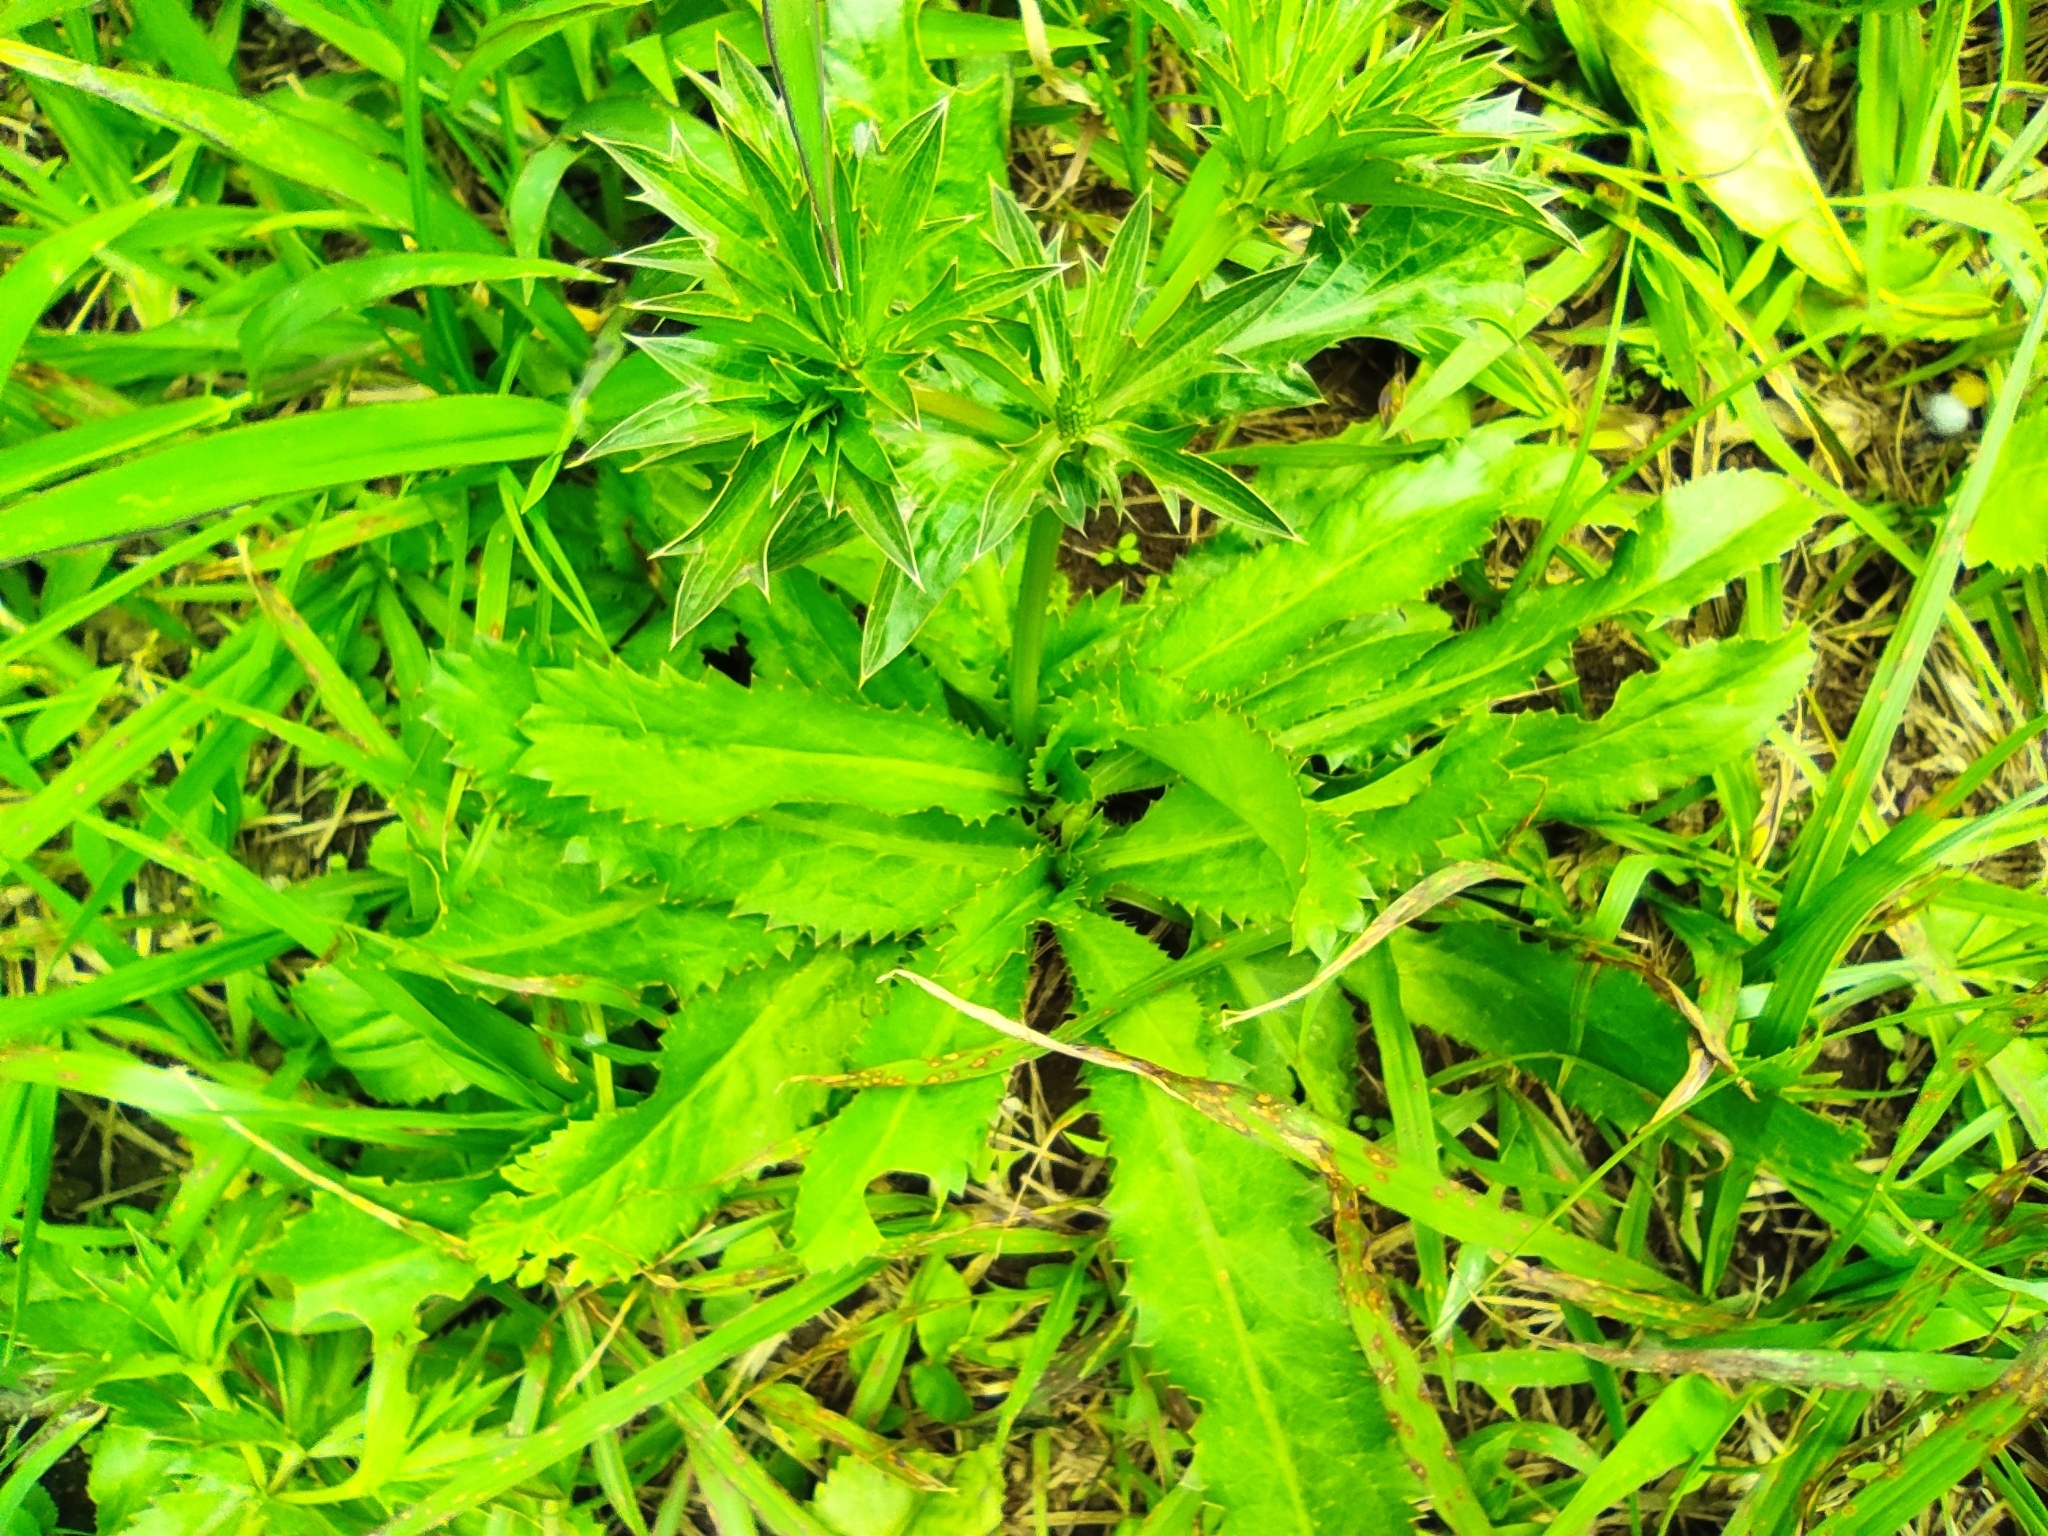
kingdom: Plantae
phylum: Tracheophyta
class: Magnoliopsida
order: Apiales
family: Apiaceae
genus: Eryngium
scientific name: Eryngium foetidum
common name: Fitweed
